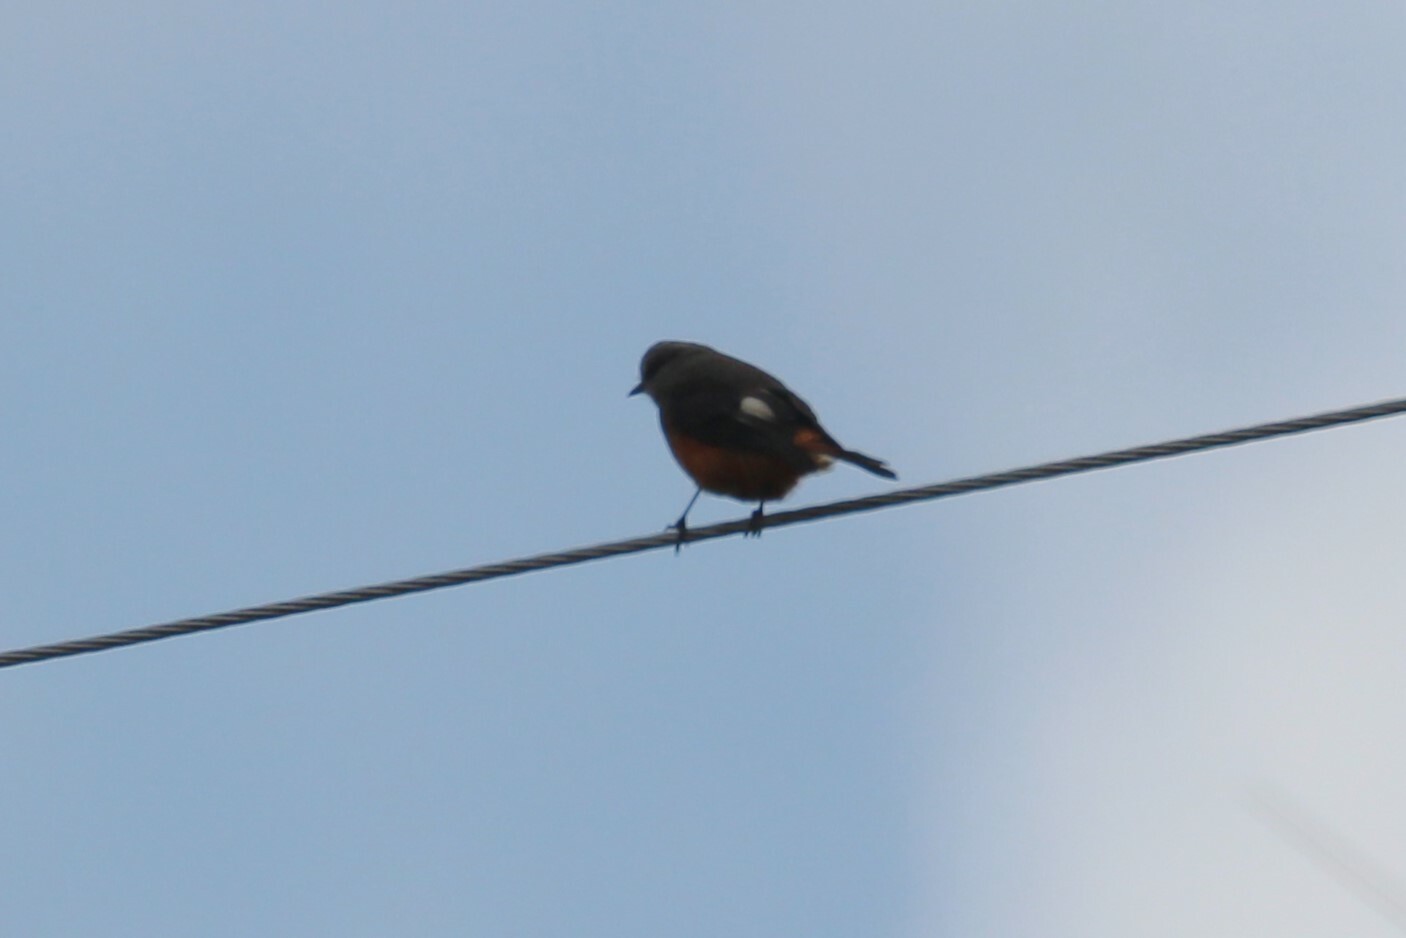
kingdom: Animalia
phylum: Chordata
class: Aves
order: Passeriformes
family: Tyrannidae
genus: Cnemarchus
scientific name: Cnemarchus erythropygius
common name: Red-rumped bush tyrant
